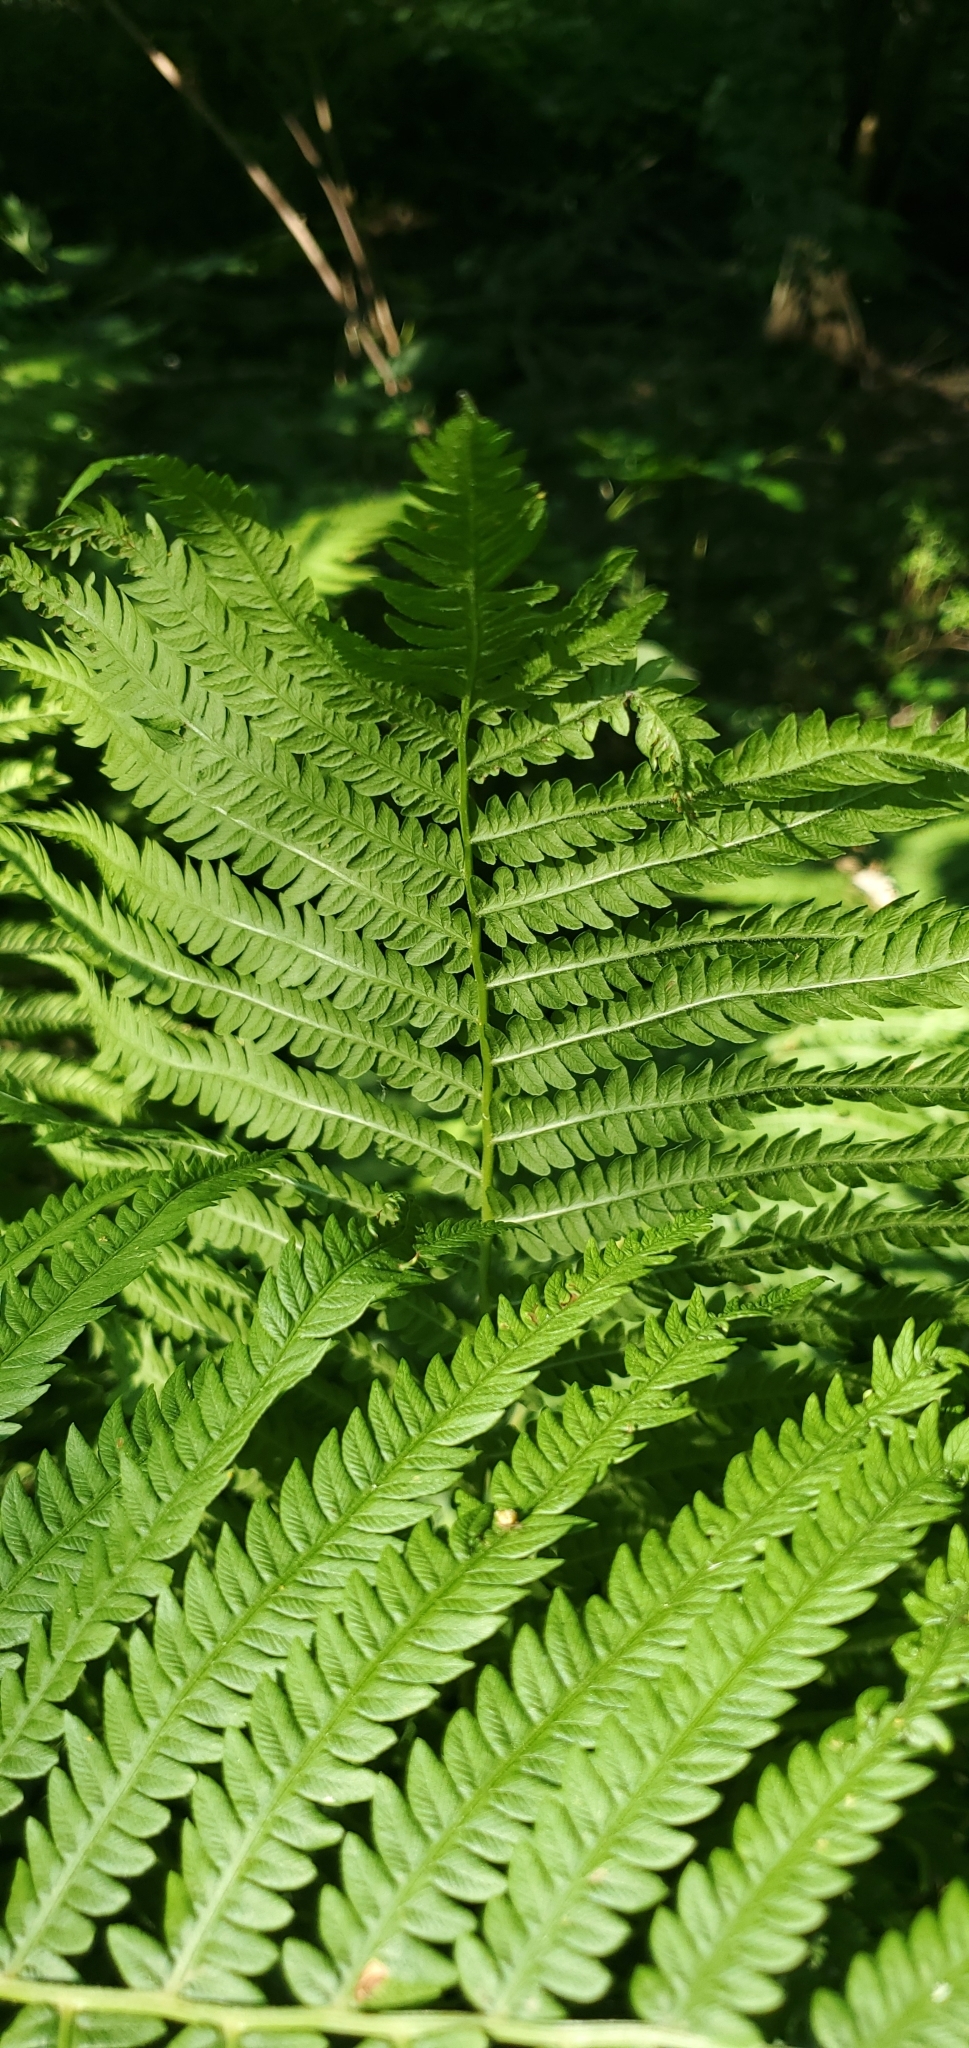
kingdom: Plantae
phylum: Tracheophyta
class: Polypodiopsida
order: Polypodiales
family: Onocleaceae
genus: Matteuccia
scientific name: Matteuccia struthiopteris
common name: Ostrich fern
